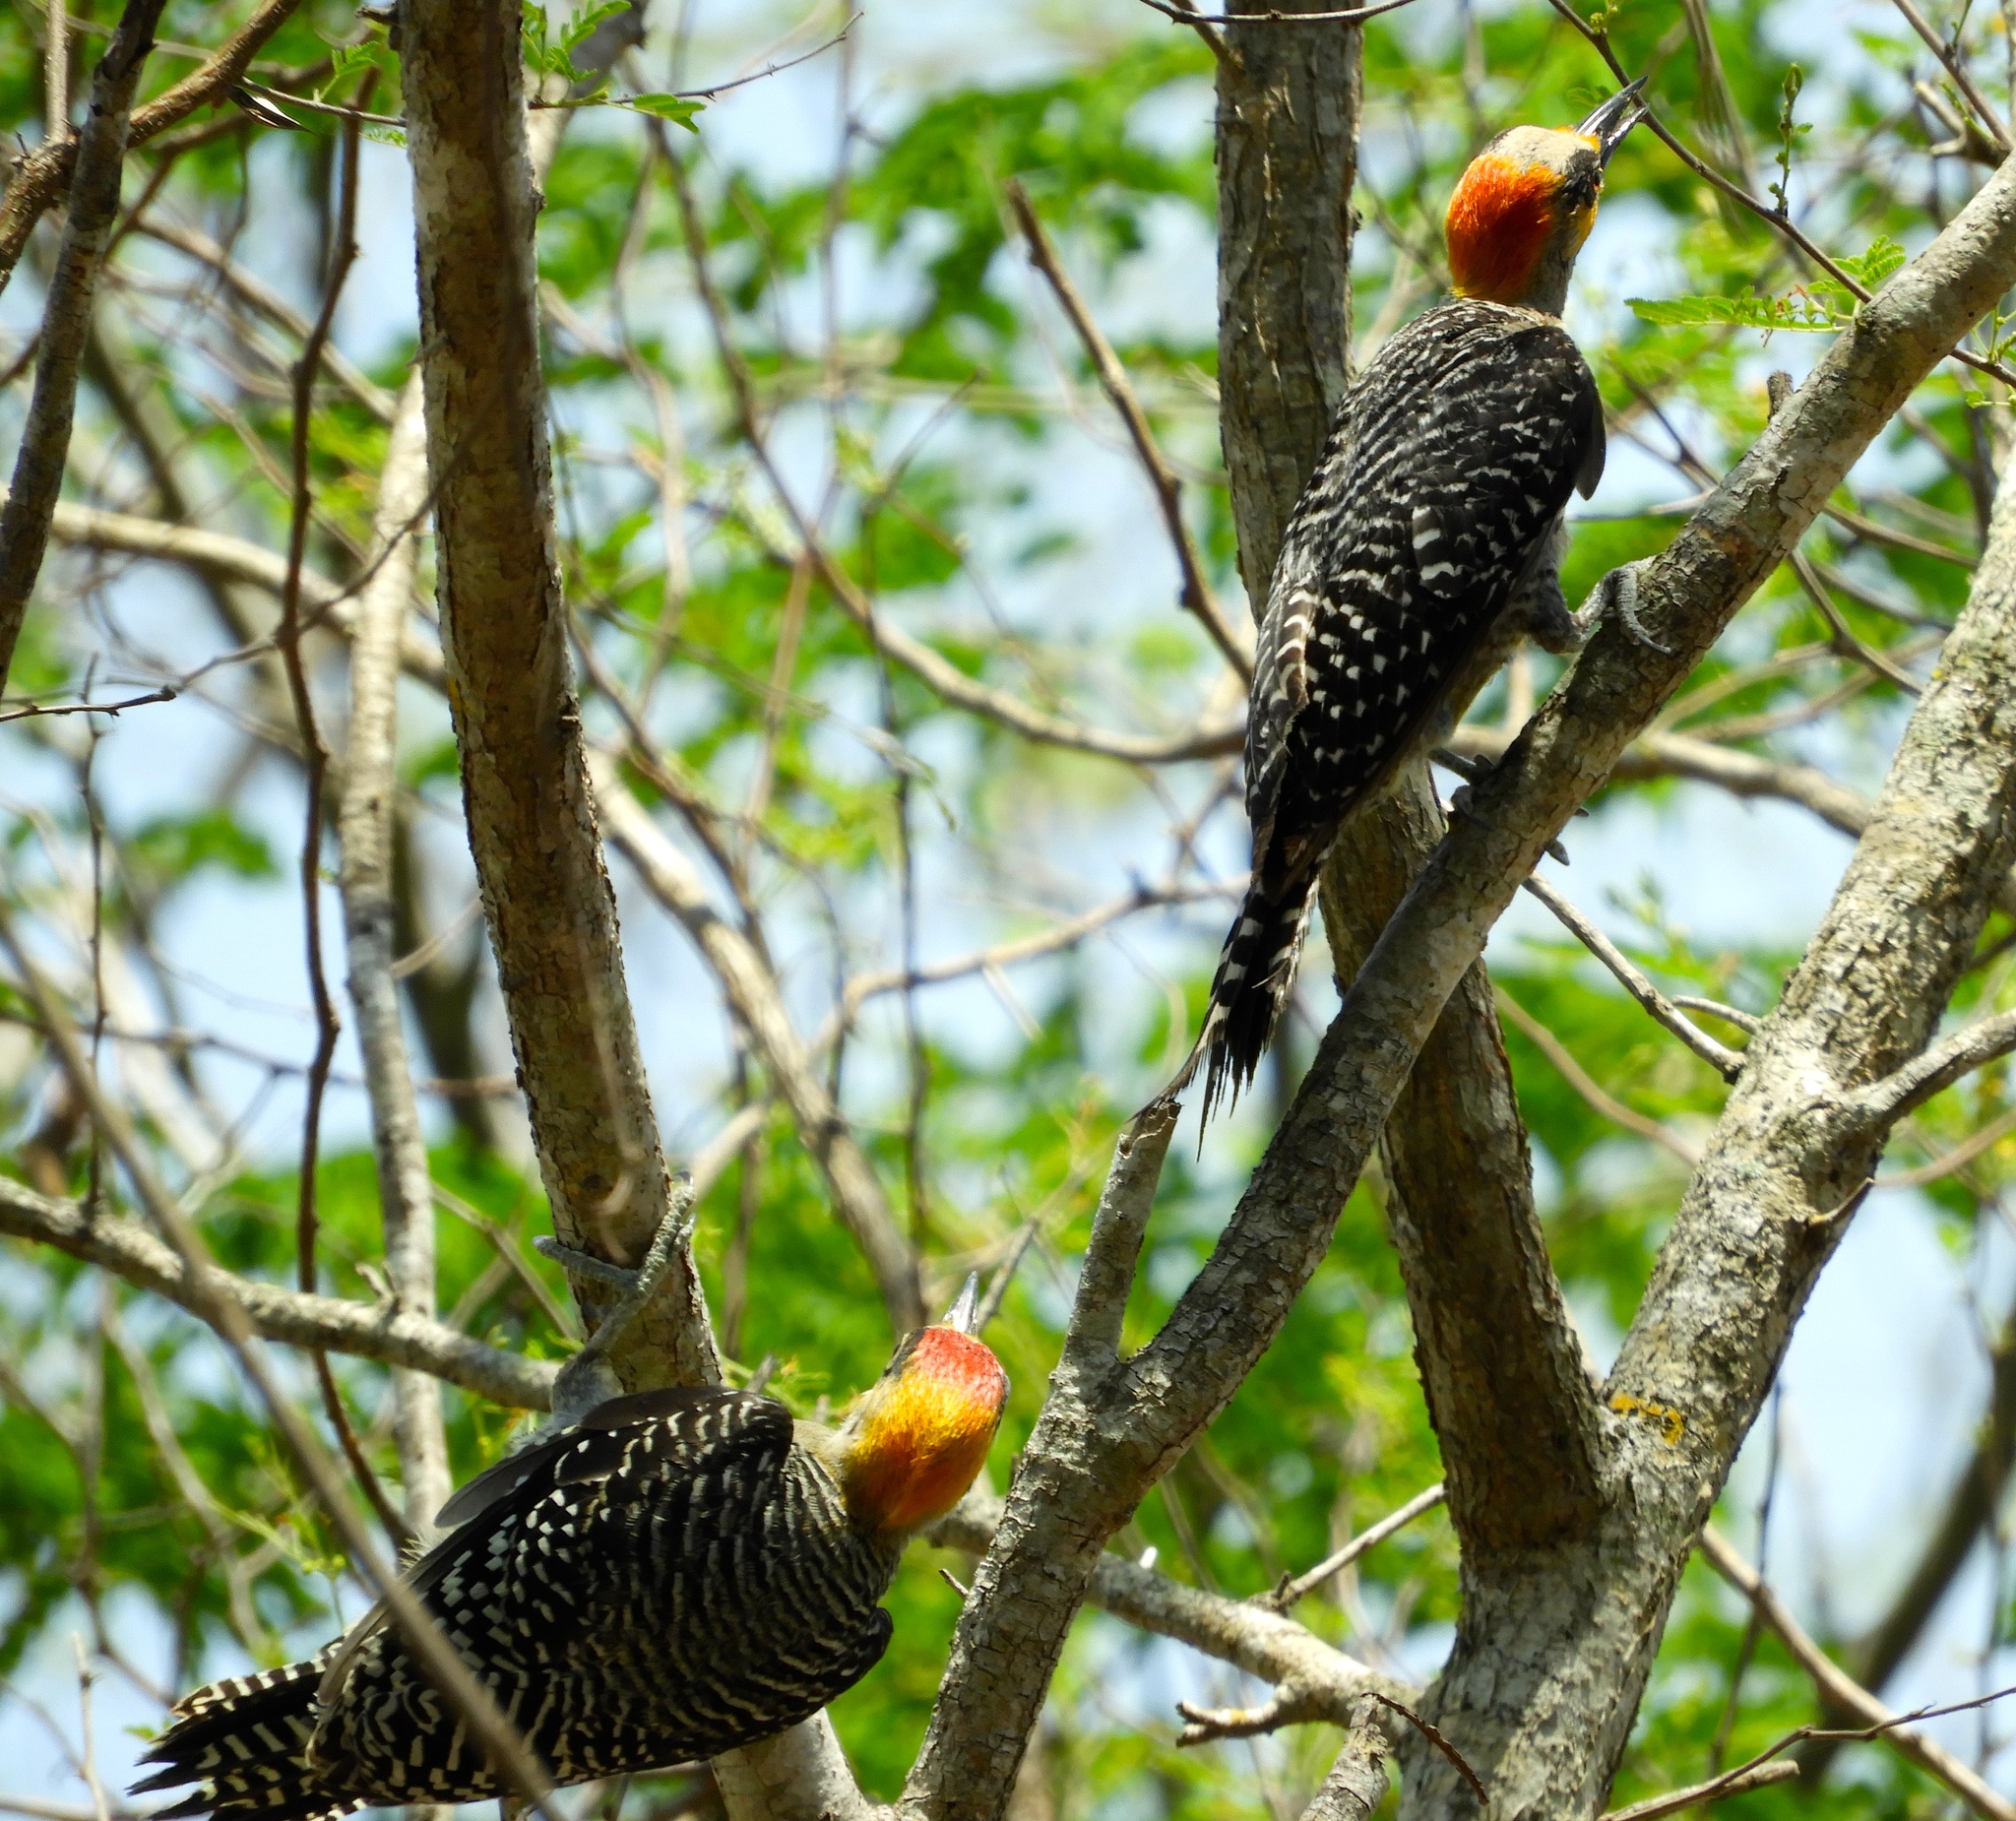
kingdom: Animalia
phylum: Chordata
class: Aves
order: Piciformes
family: Picidae
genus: Melanerpes
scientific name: Melanerpes chrysogenys
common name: Golden-cheeked woodpecker
